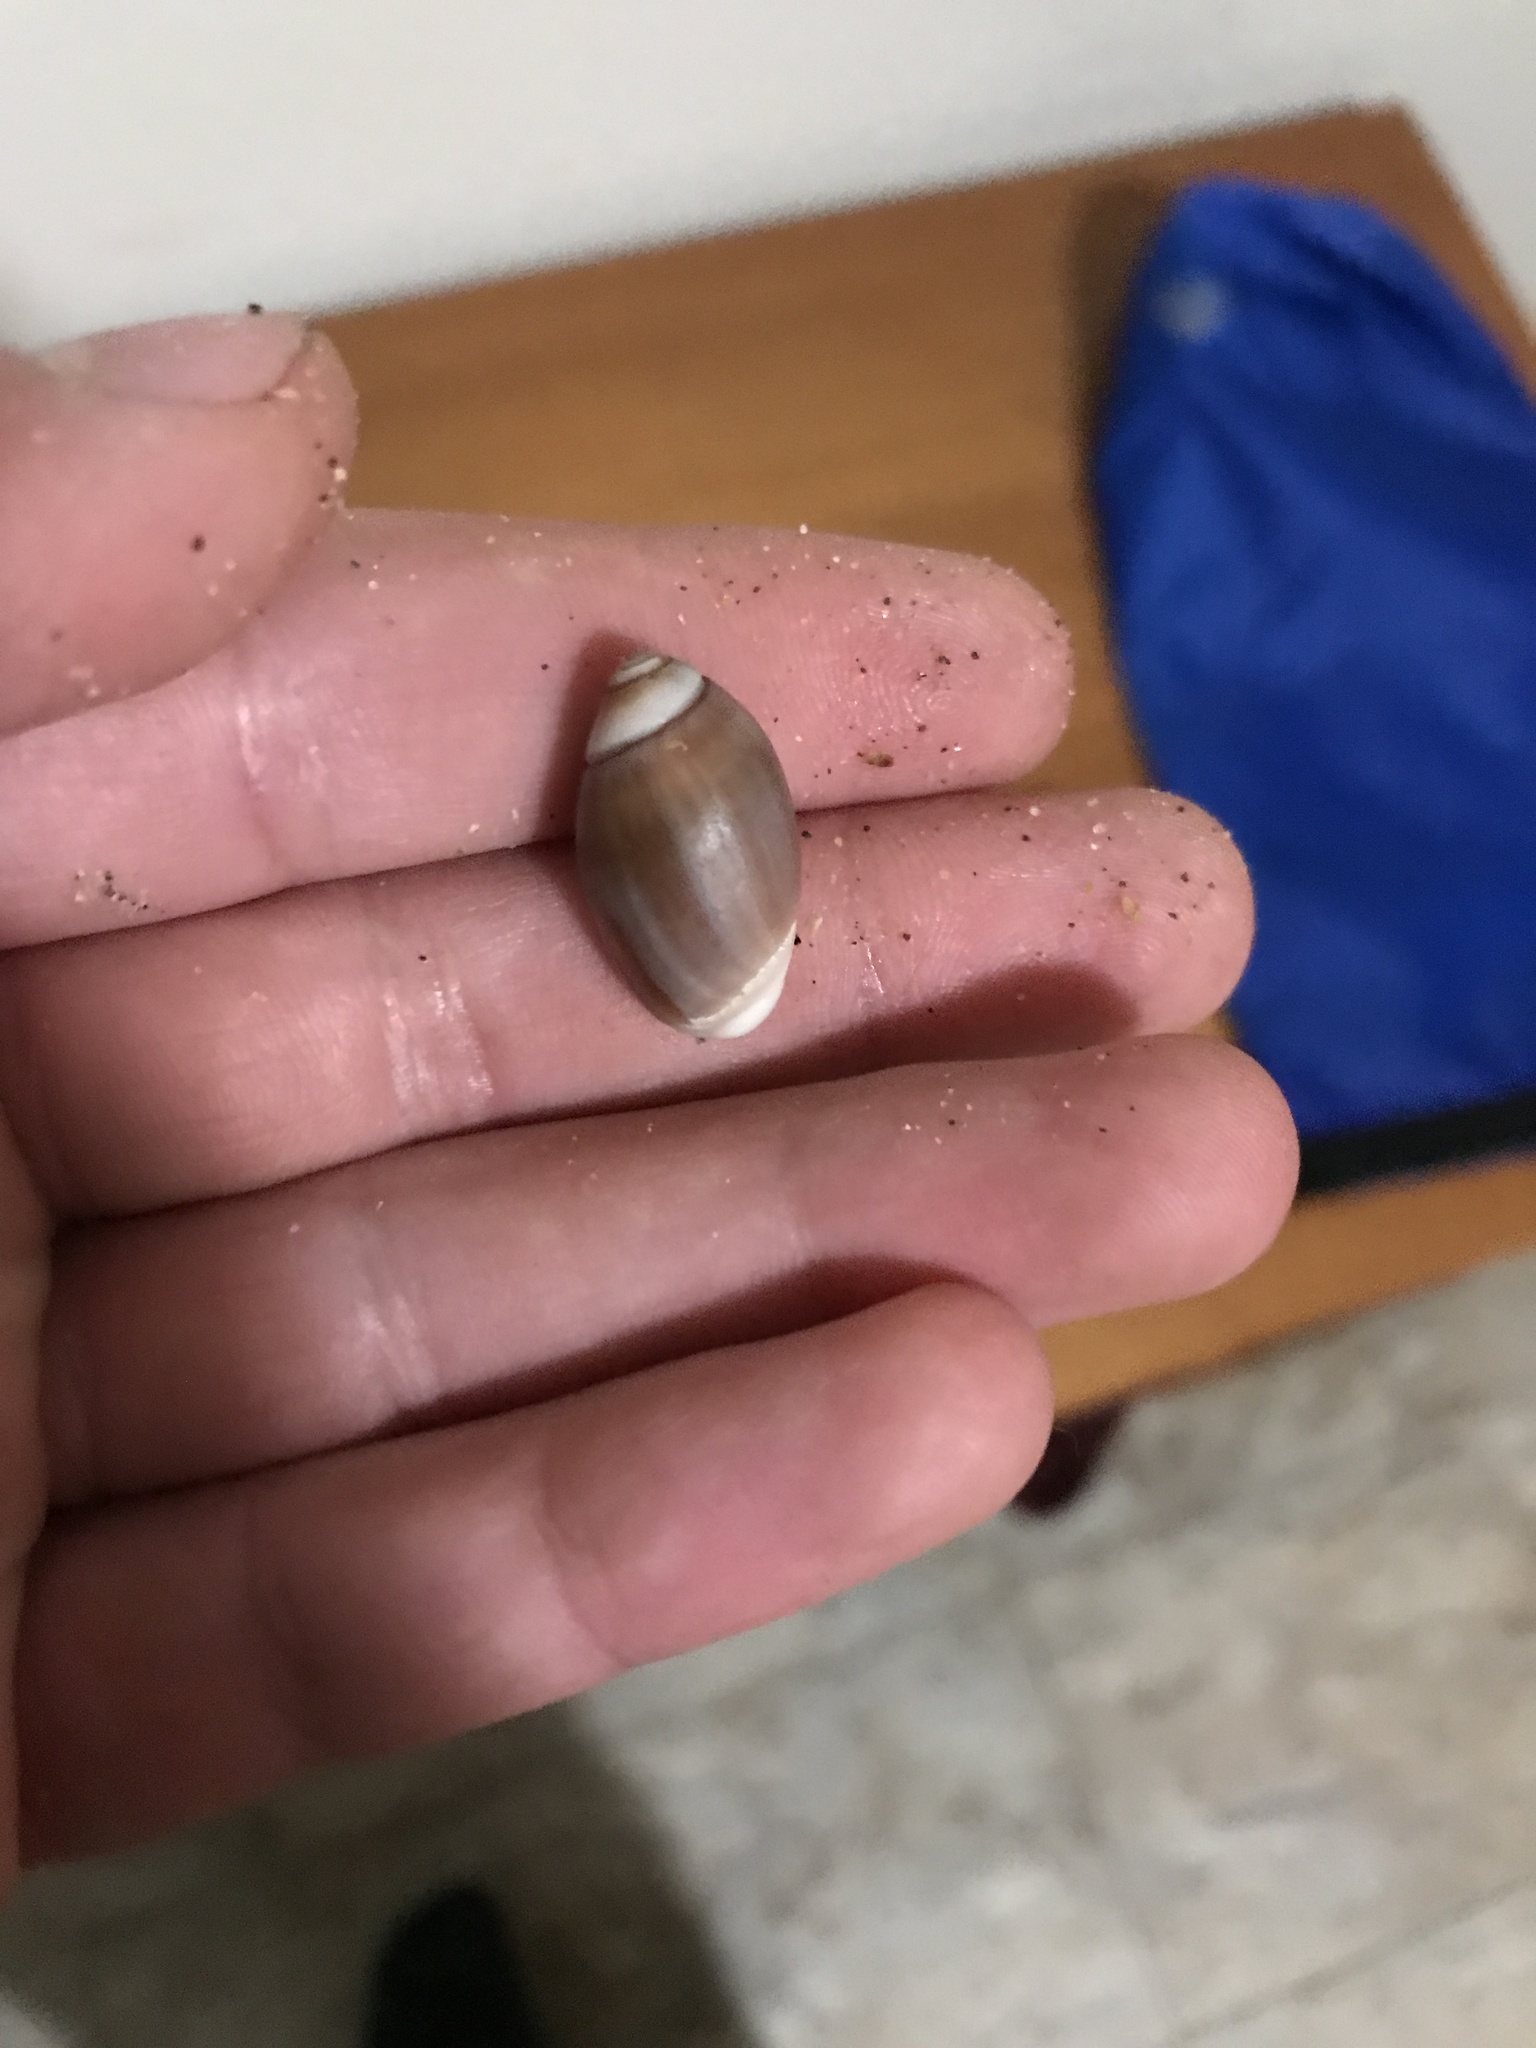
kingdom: Animalia
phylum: Mollusca
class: Gastropoda
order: Neogastropoda
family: Olividae
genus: Callianax
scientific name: Callianax biplicata
